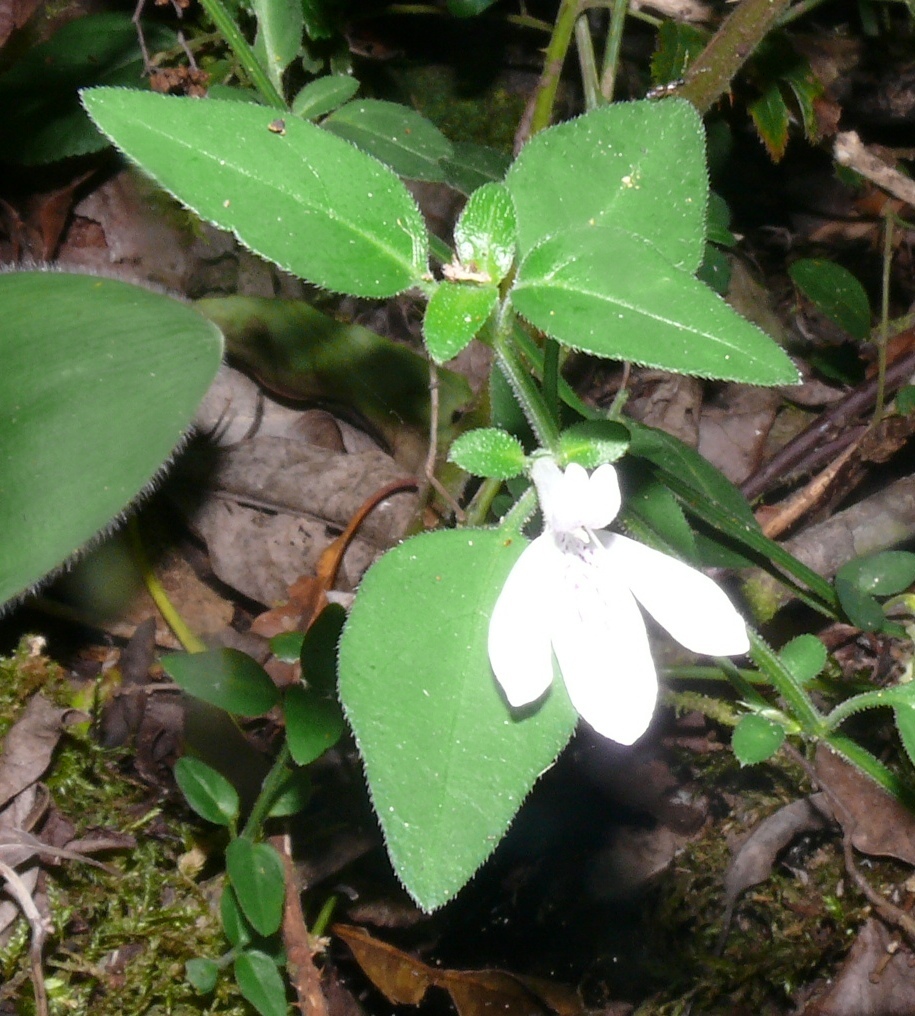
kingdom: Plantae
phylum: Tracheophyta
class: Magnoliopsida
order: Lamiales
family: Acanthaceae
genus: Justicia
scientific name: Justicia tubulosa
